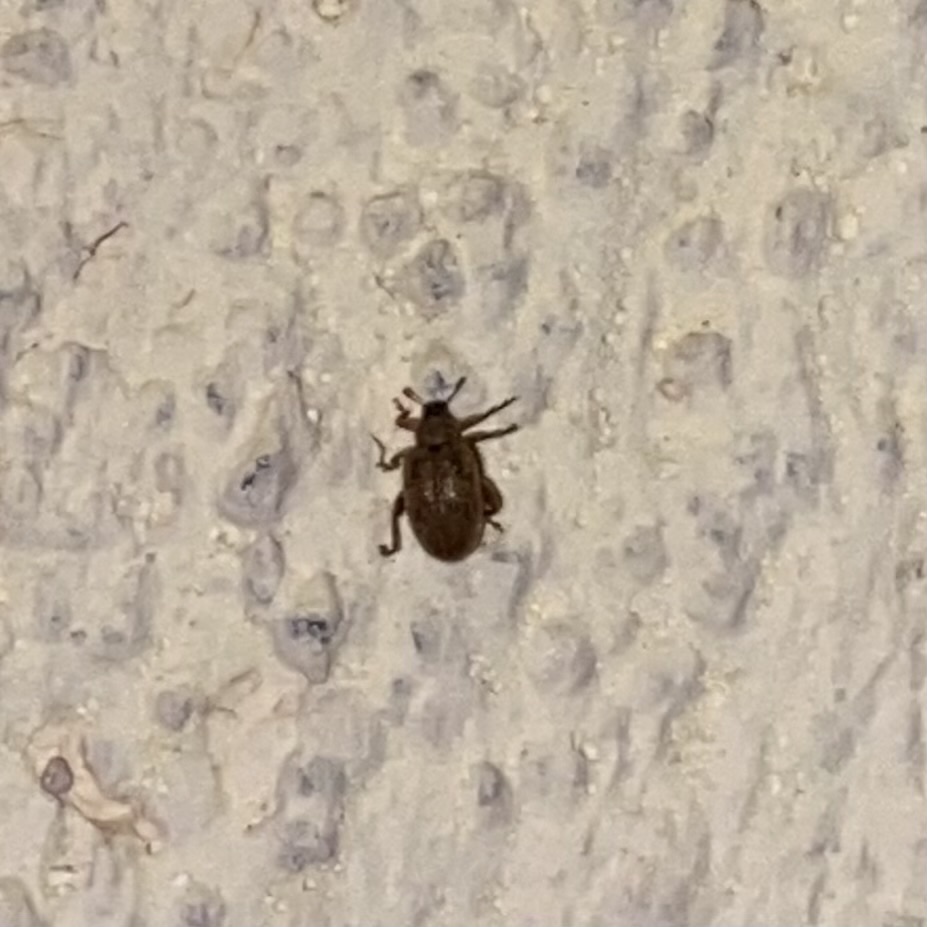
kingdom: Animalia
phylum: Arthropoda
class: Insecta
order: Coleoptera
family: Curculionidae
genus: Orchestes
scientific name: Orchestes steppensis
